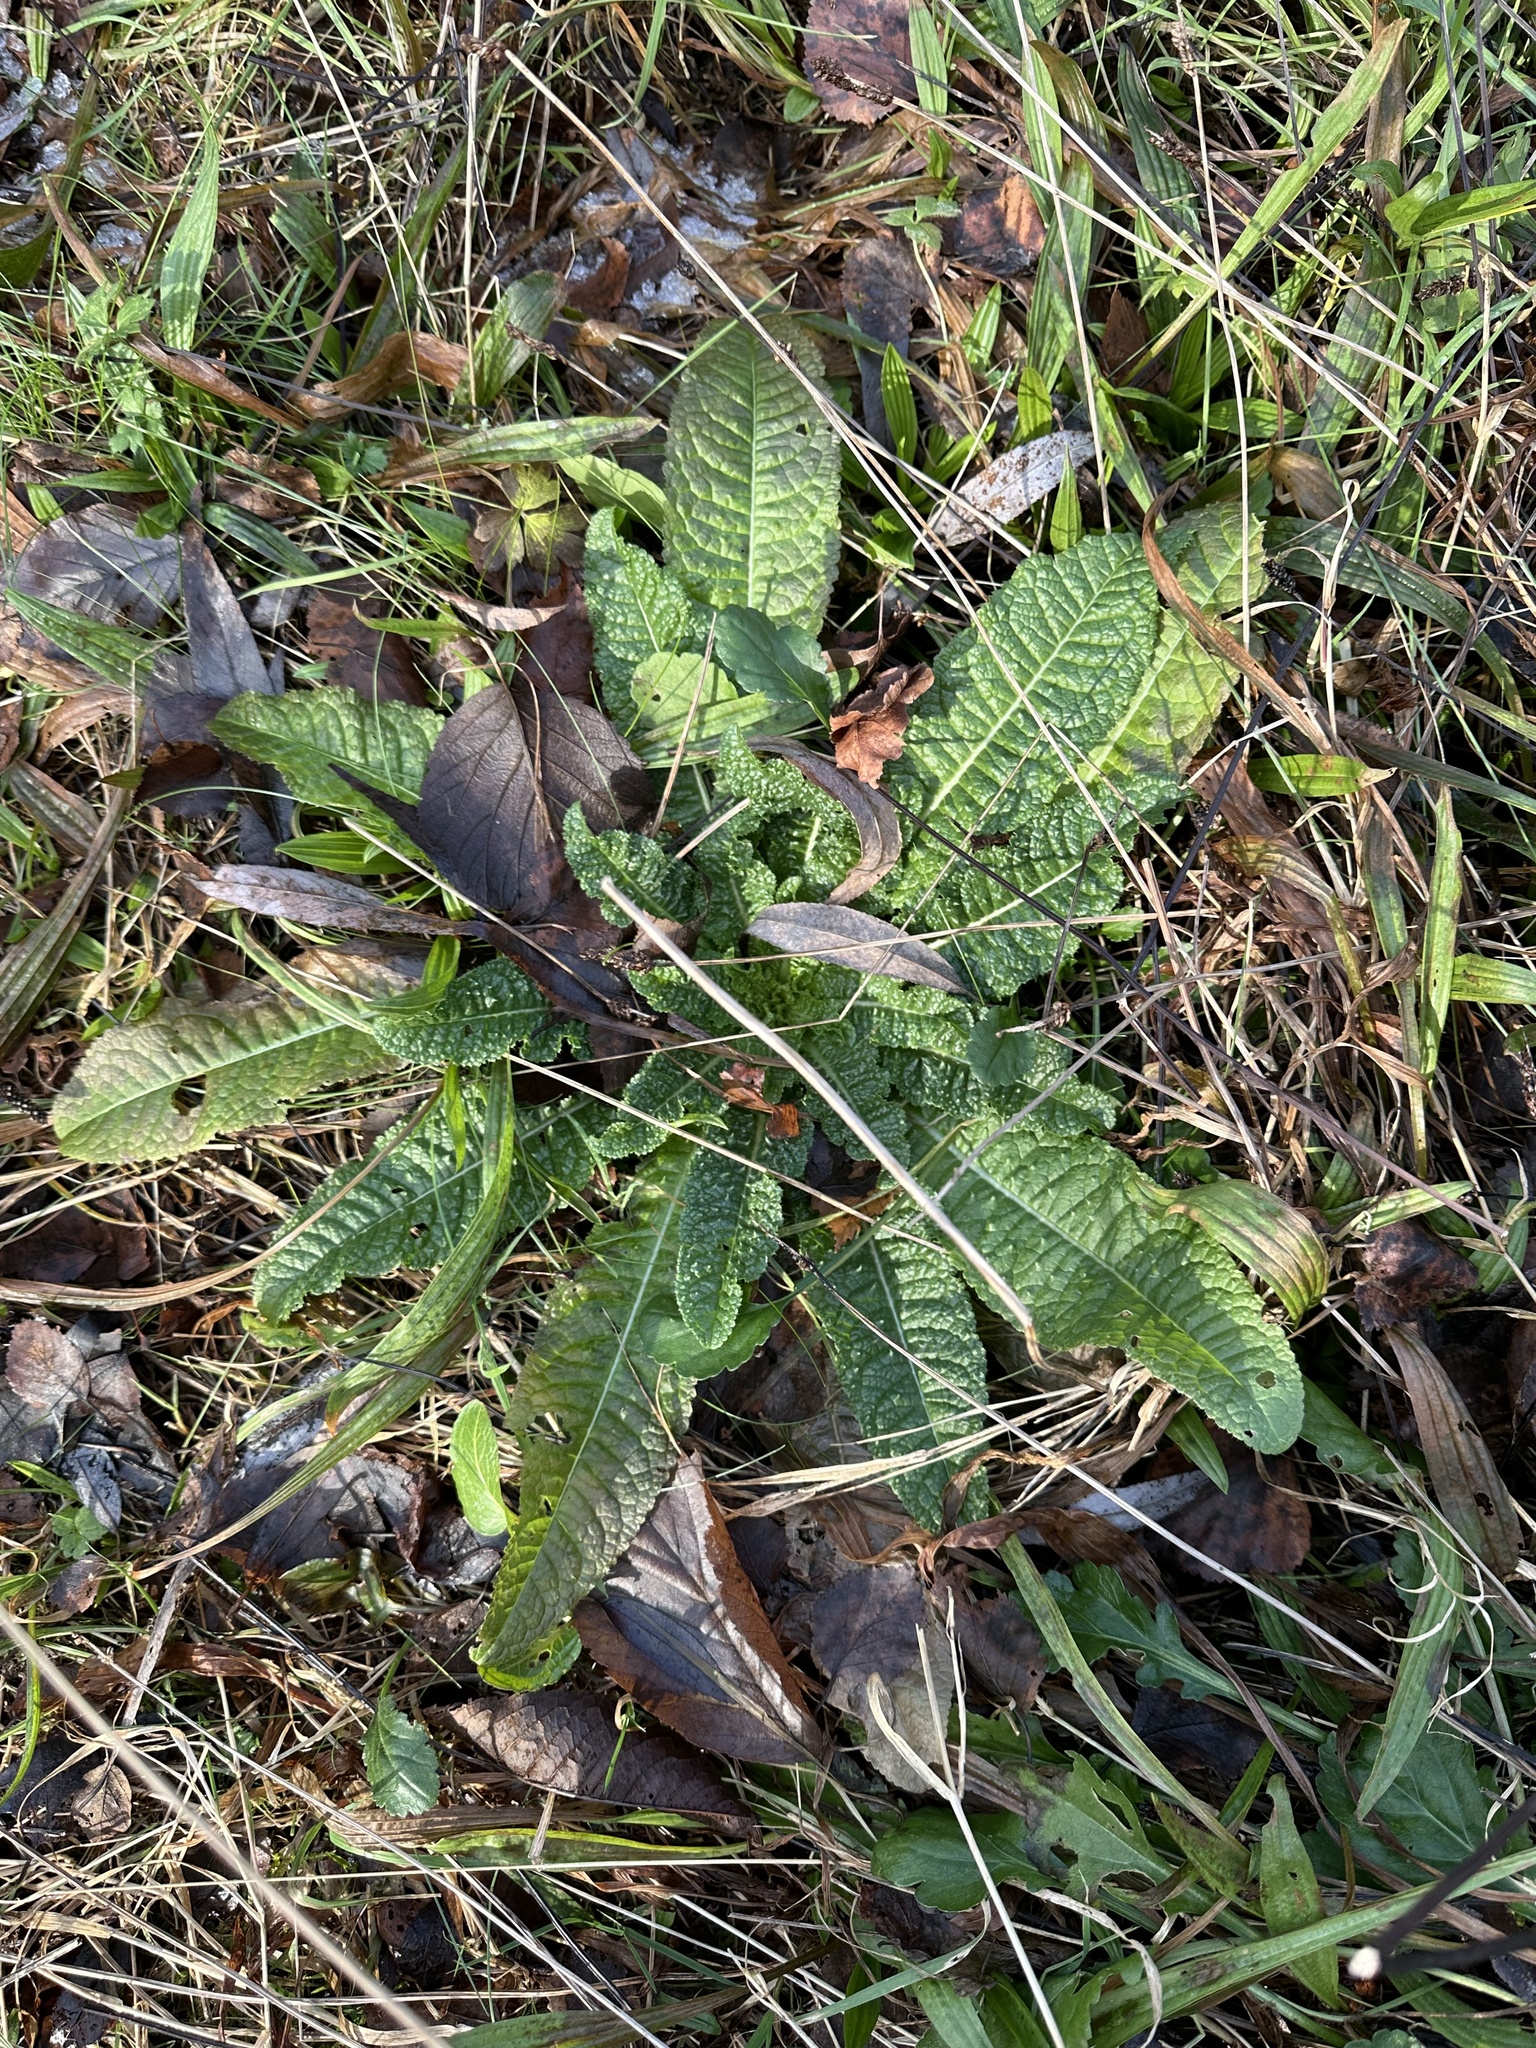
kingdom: Plantae
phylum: Tracheophyta
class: Magnoliopsida
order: Dipsacales
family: Caprifoliaceae
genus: Dipsacus
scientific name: Dipsacus fullonum
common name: Teasel
